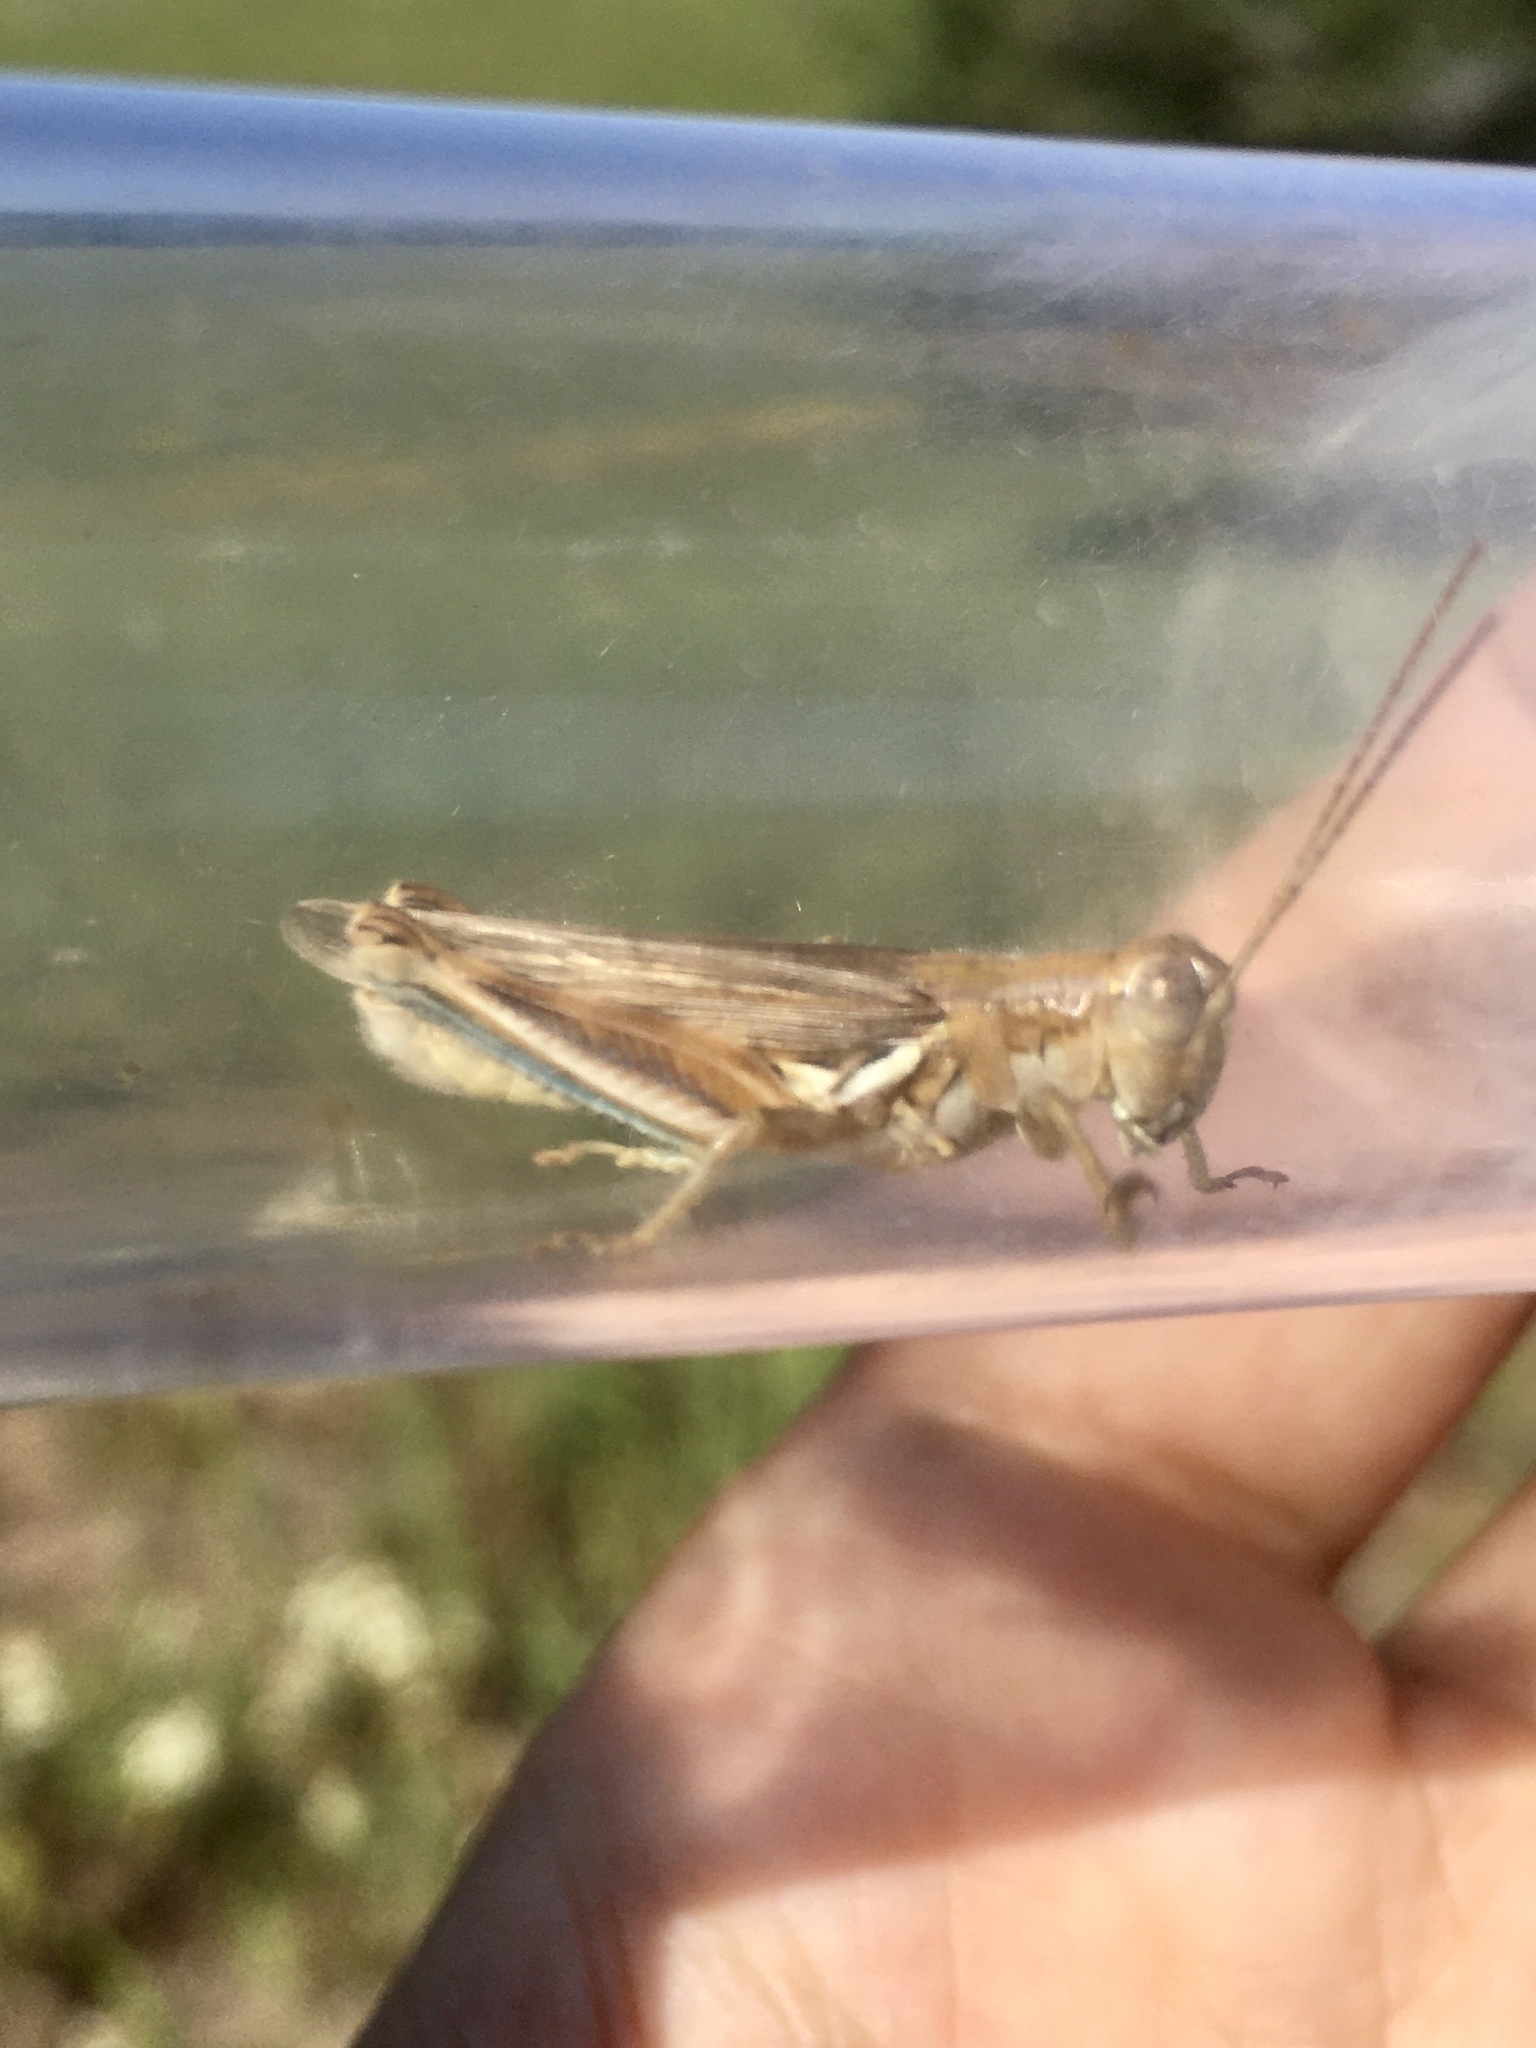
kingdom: Animalia
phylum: Arthropoda
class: Insecta
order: Orthoptera
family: Acrididae
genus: Melanoplus
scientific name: Melanoplus flavidus
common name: Blue-legged locust
